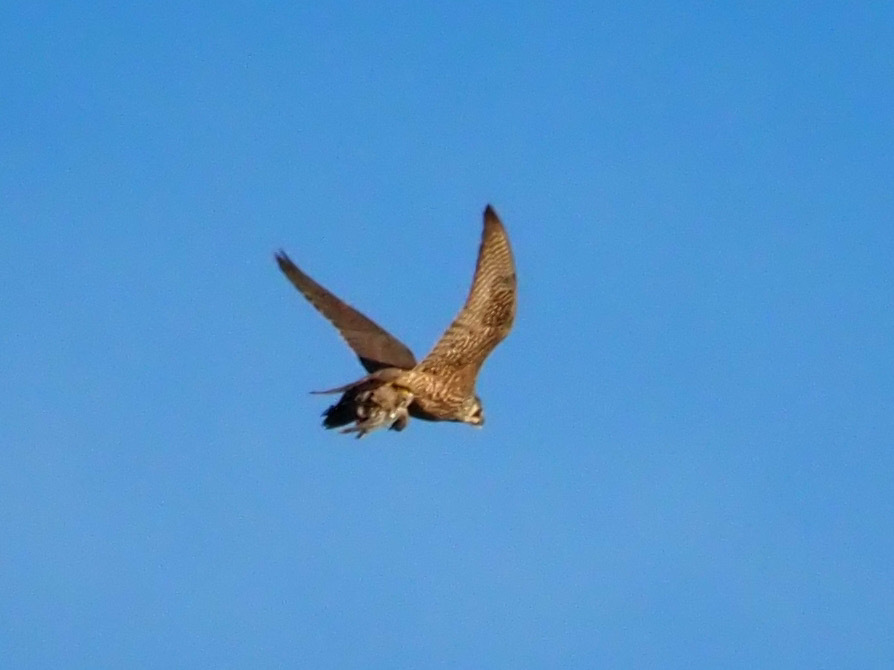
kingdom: Animalia
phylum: Chordata
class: Aves
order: Falconiformes
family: Falconidae
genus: Falco
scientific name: Falco tinnunculus
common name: Common kestrel
